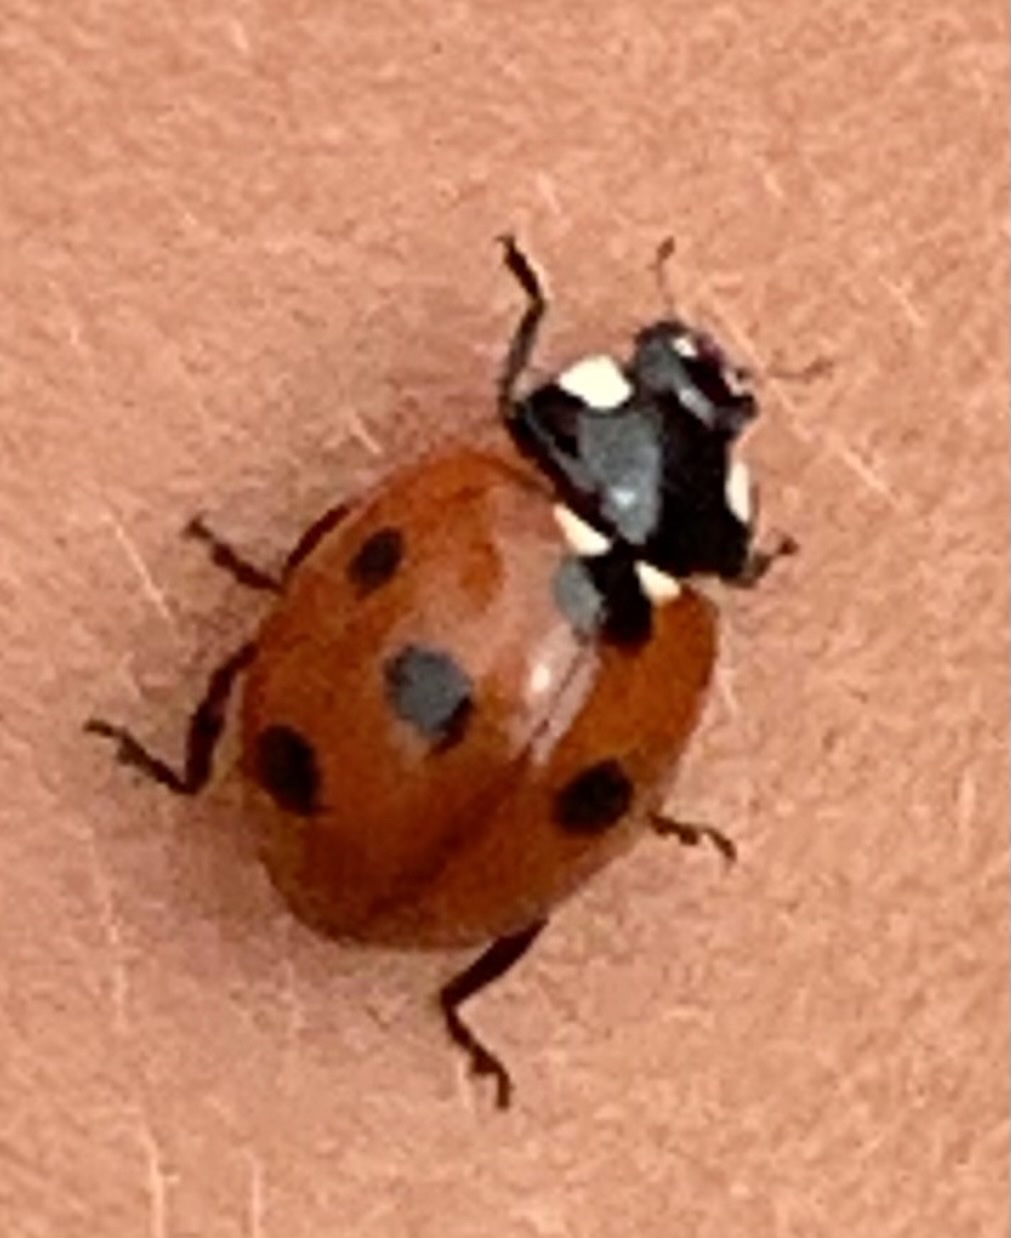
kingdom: Animalia
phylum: Arthropoda
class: Insecta
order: Coleoptera
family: Coccinellidae
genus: Coccinella
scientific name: Coccinella septempunctata
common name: Sevenspotted lady beetle
